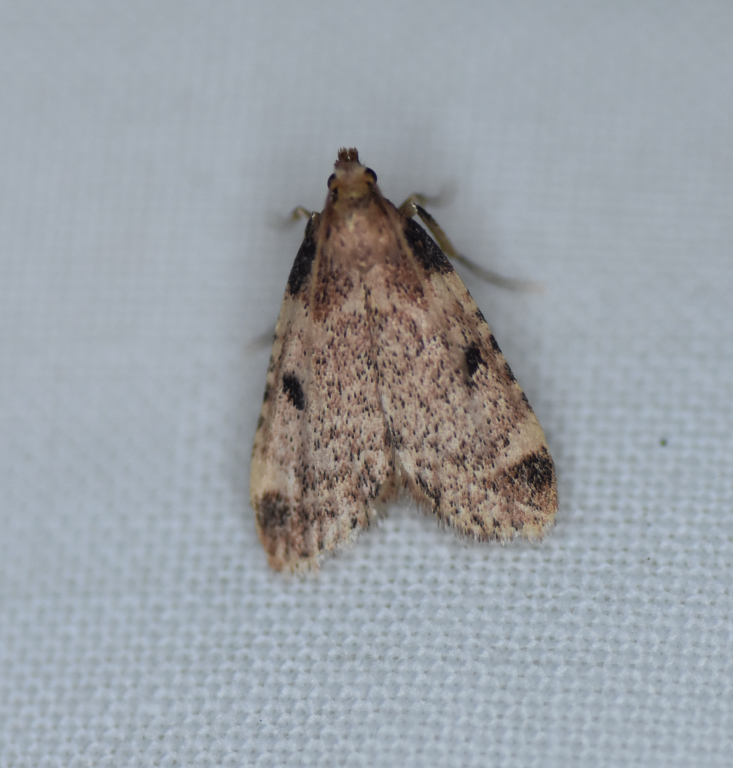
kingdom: Animalia
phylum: Arthropoda
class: Insecta
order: Lepidoptera
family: Pyralidae
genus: Aglossa
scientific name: Aglossa costiferalis
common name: Calico pyralid moth
